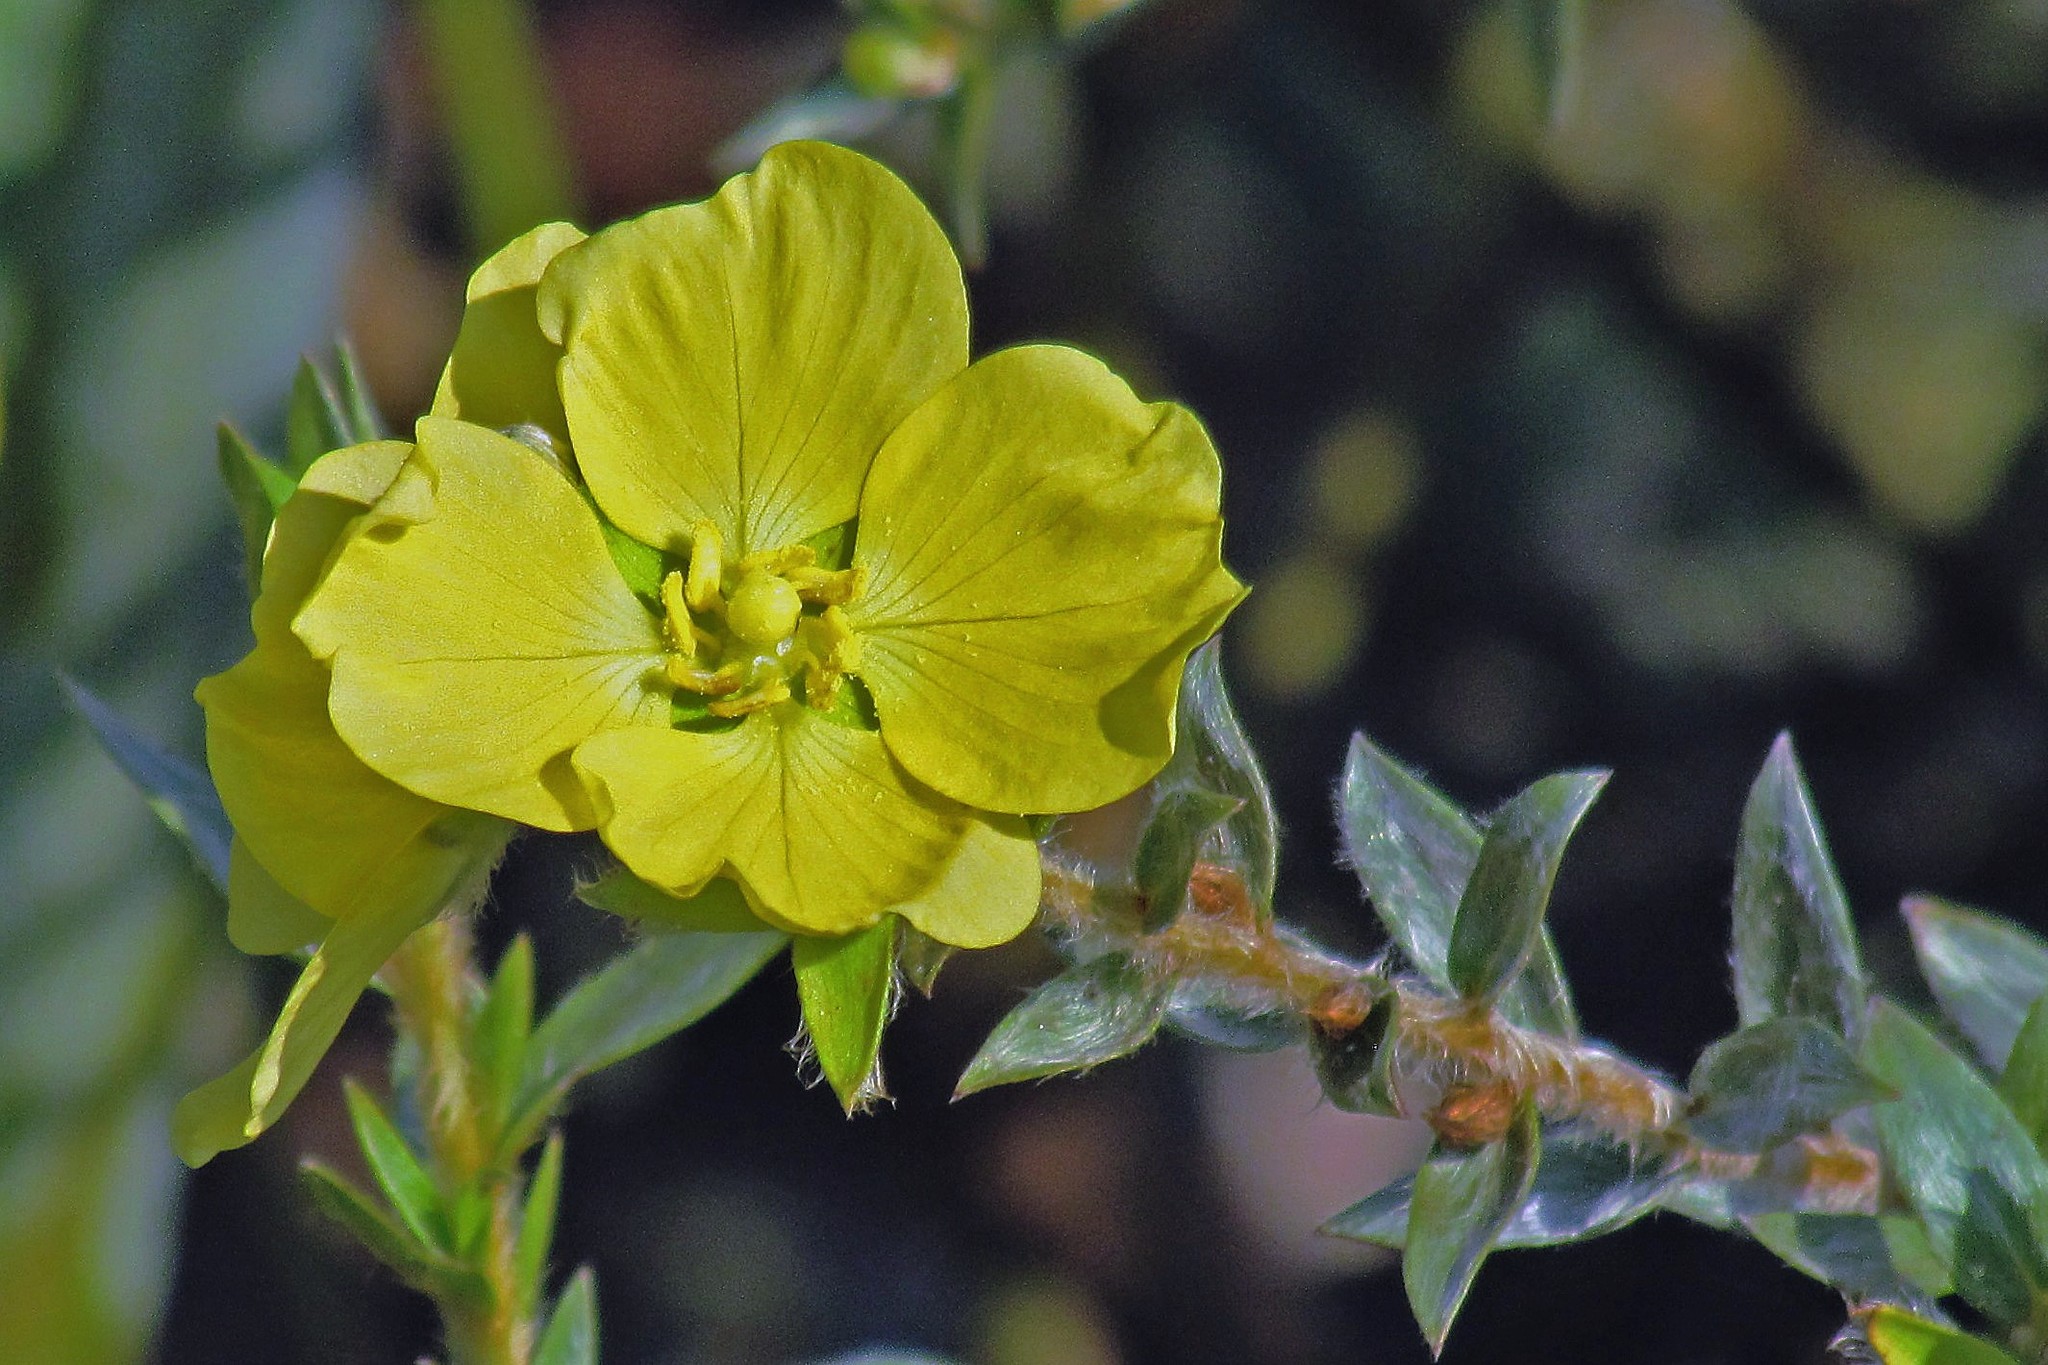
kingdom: Plantae
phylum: Tracheophyta
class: Magnoliopsida
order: Myrtales
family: Onagraceae
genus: Ludwigia
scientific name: Ludwigia sericea
